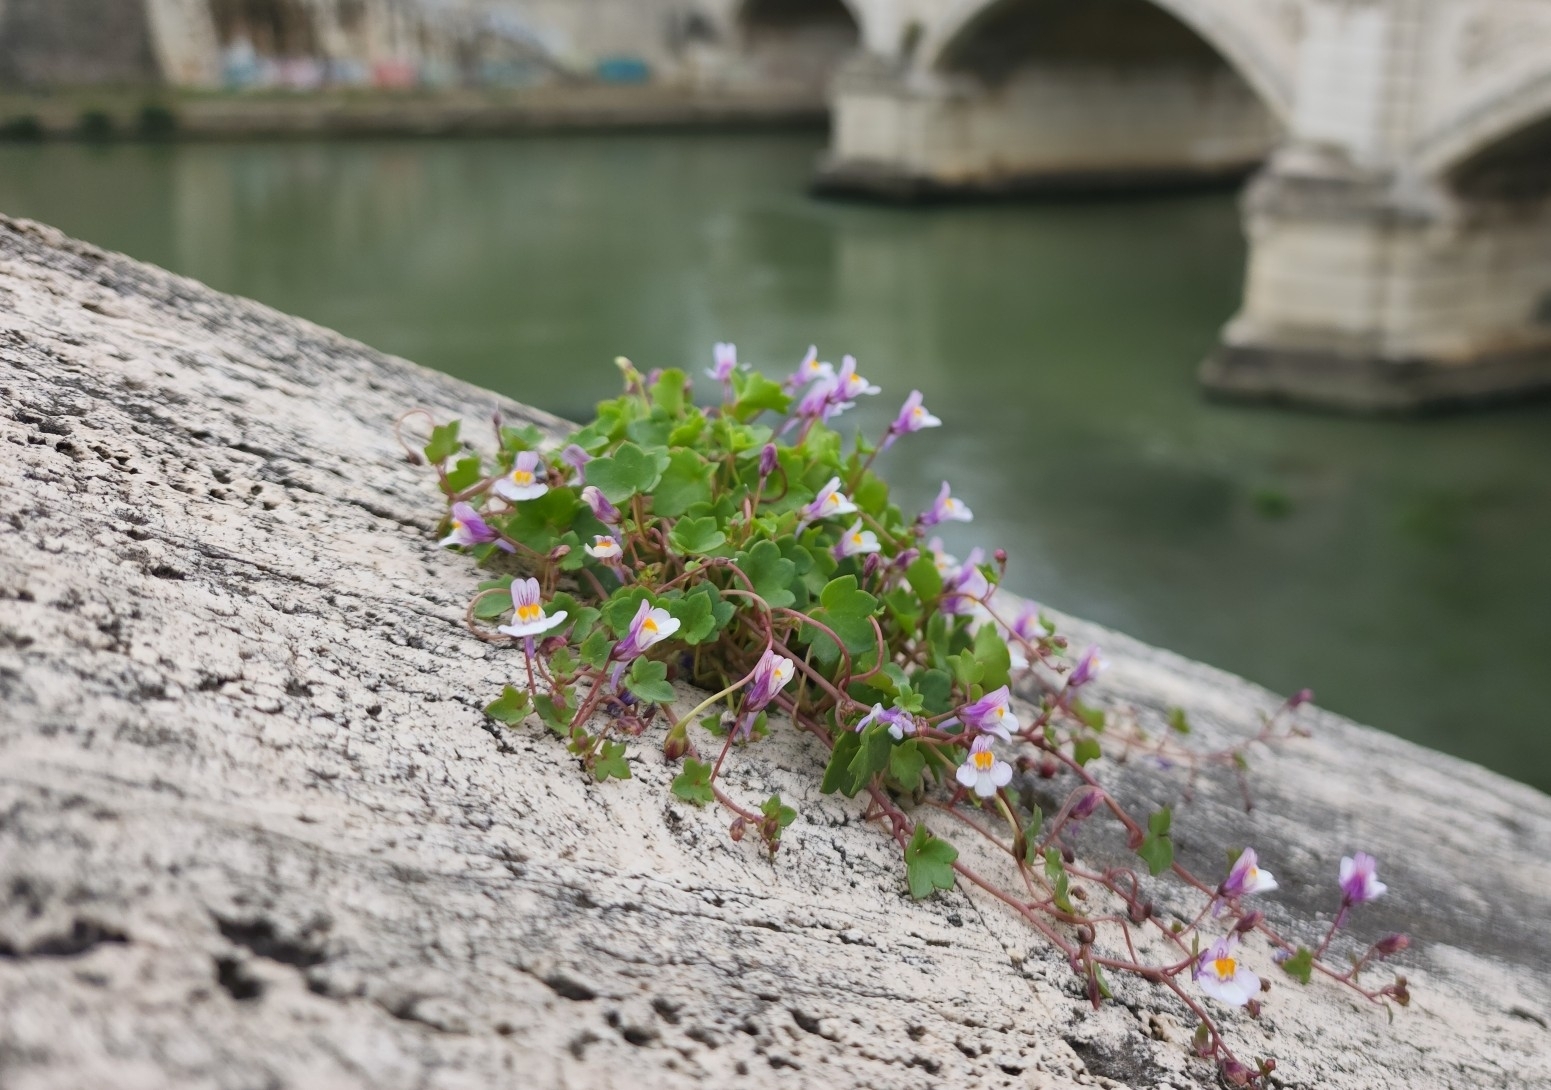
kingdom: Plantae
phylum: Tracheophyta
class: Magnoliopsida
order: Lamiales
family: Plantaginaceae
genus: Cymbalaria
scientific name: Cymbalaria muralis
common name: Ivy-leaved toadflax
